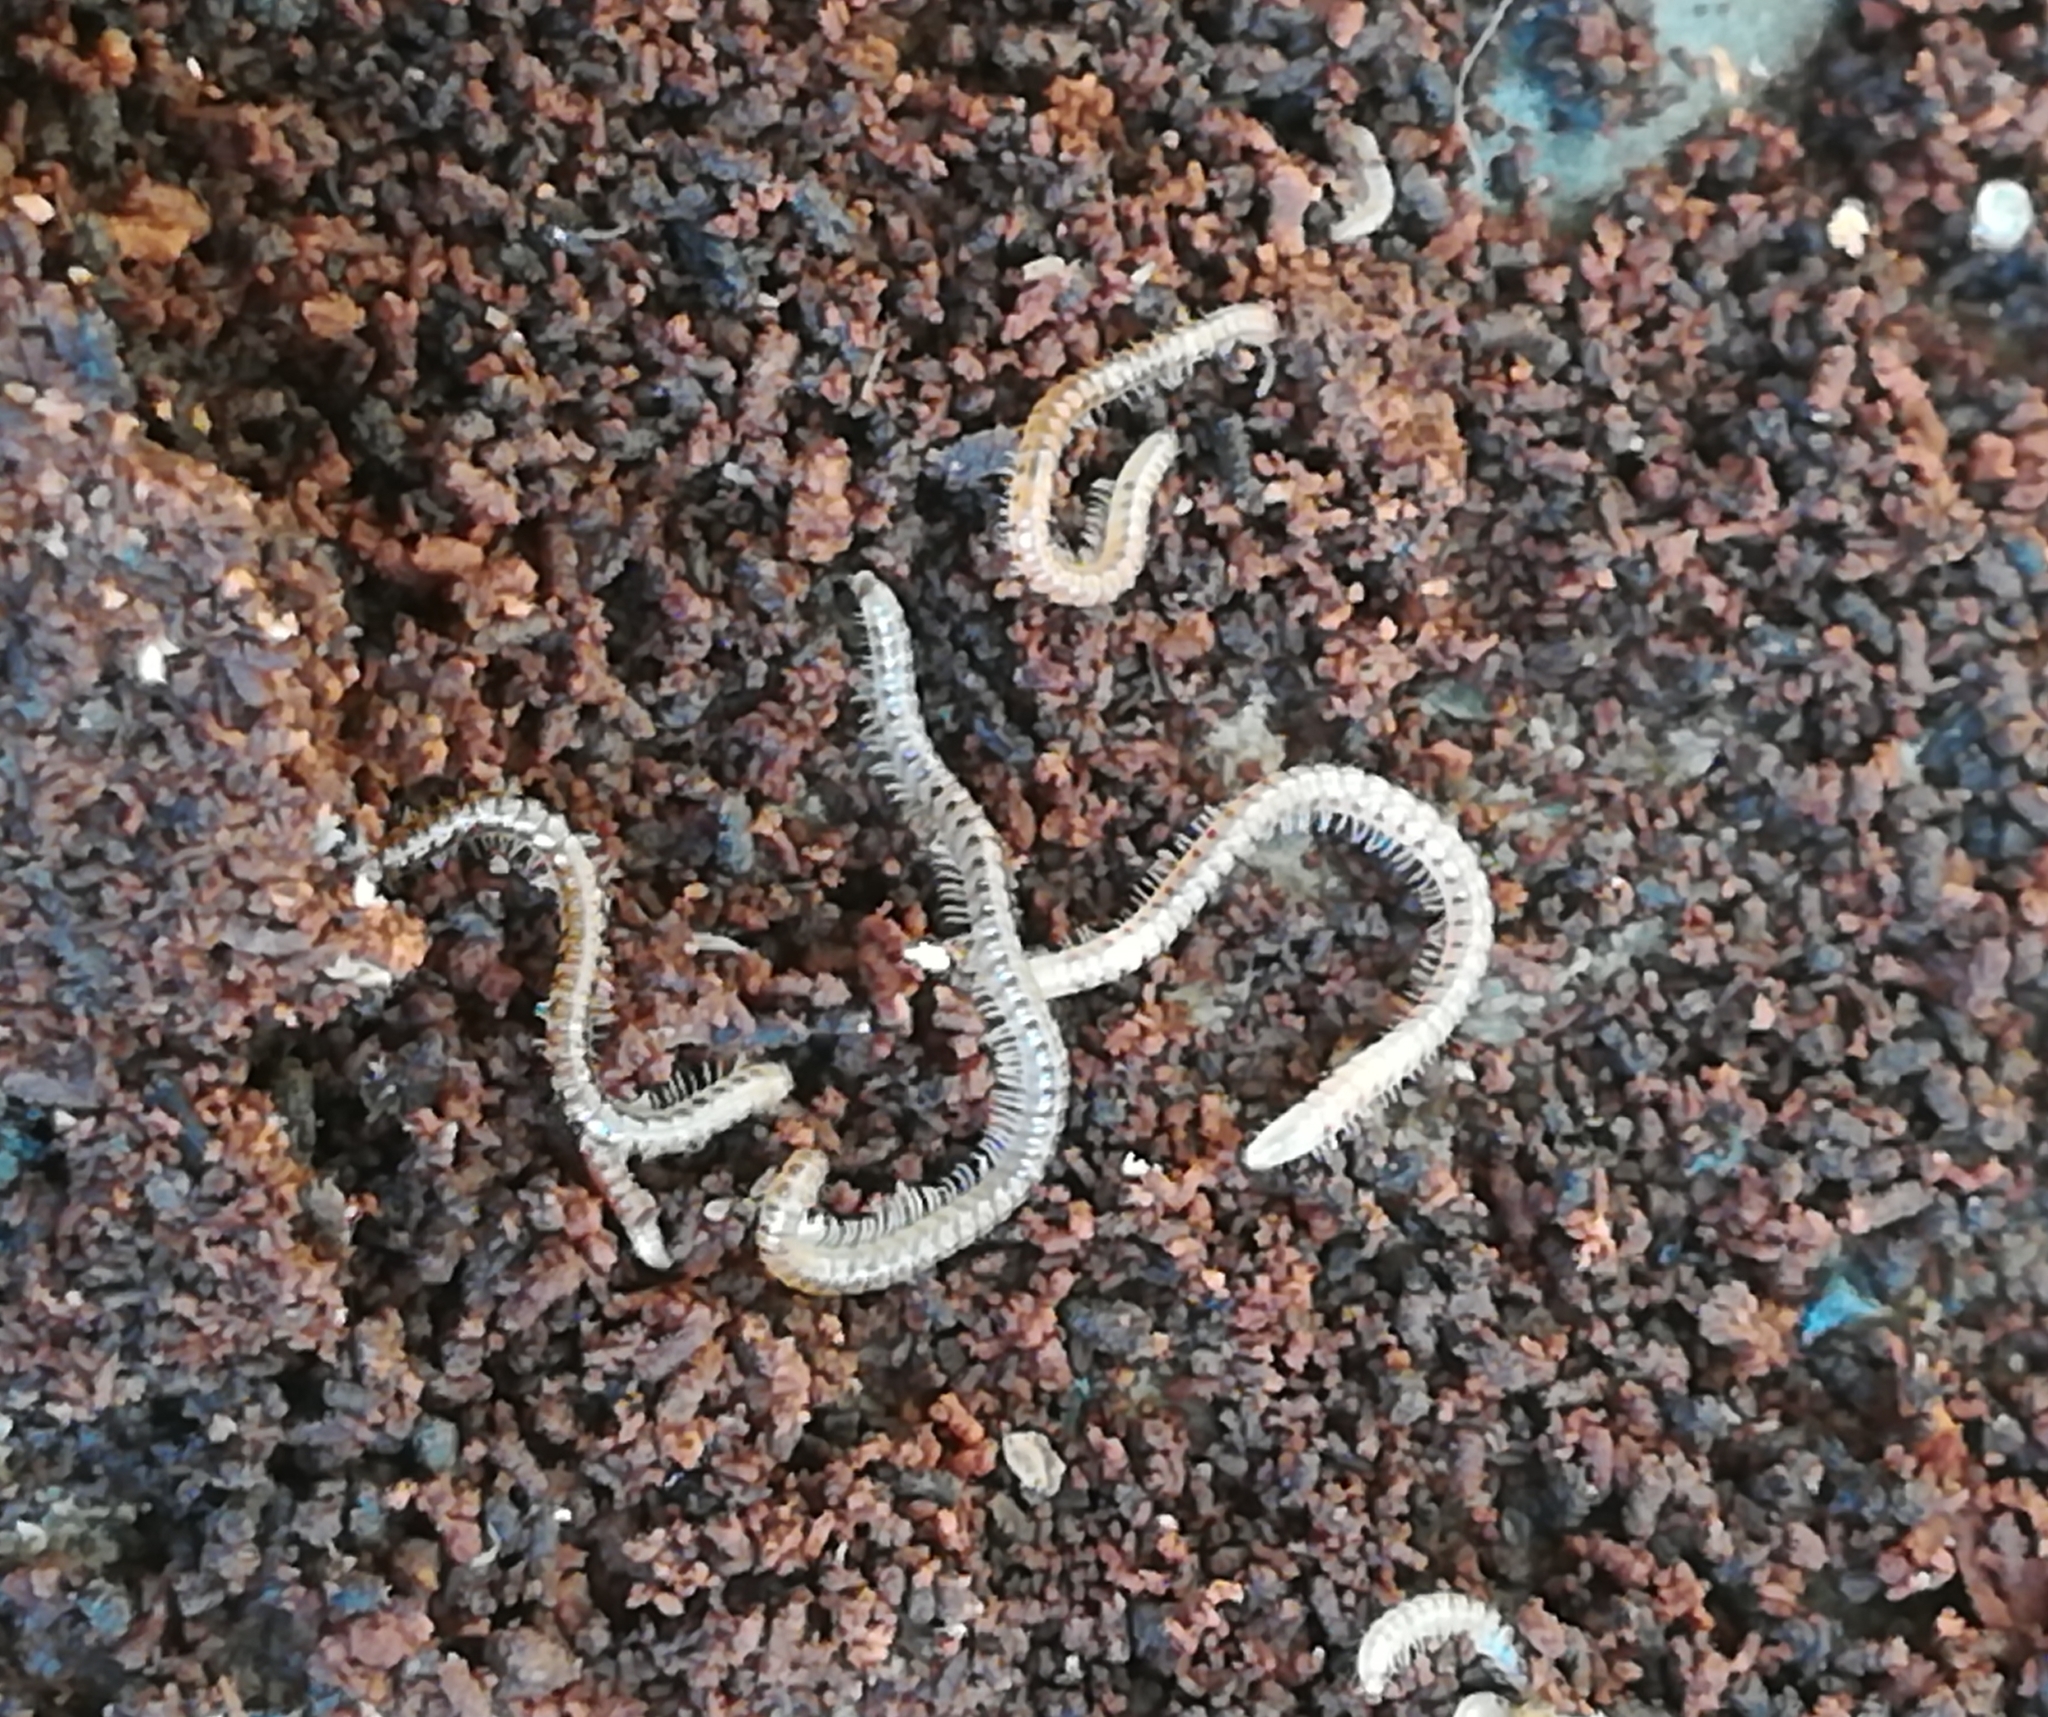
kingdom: Animalia
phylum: Arthropoda
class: Diplopoda
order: Julida
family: Blaniulidae
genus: Blaniulus
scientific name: Blaniulus guttulatus
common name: Spotted snake millipede
